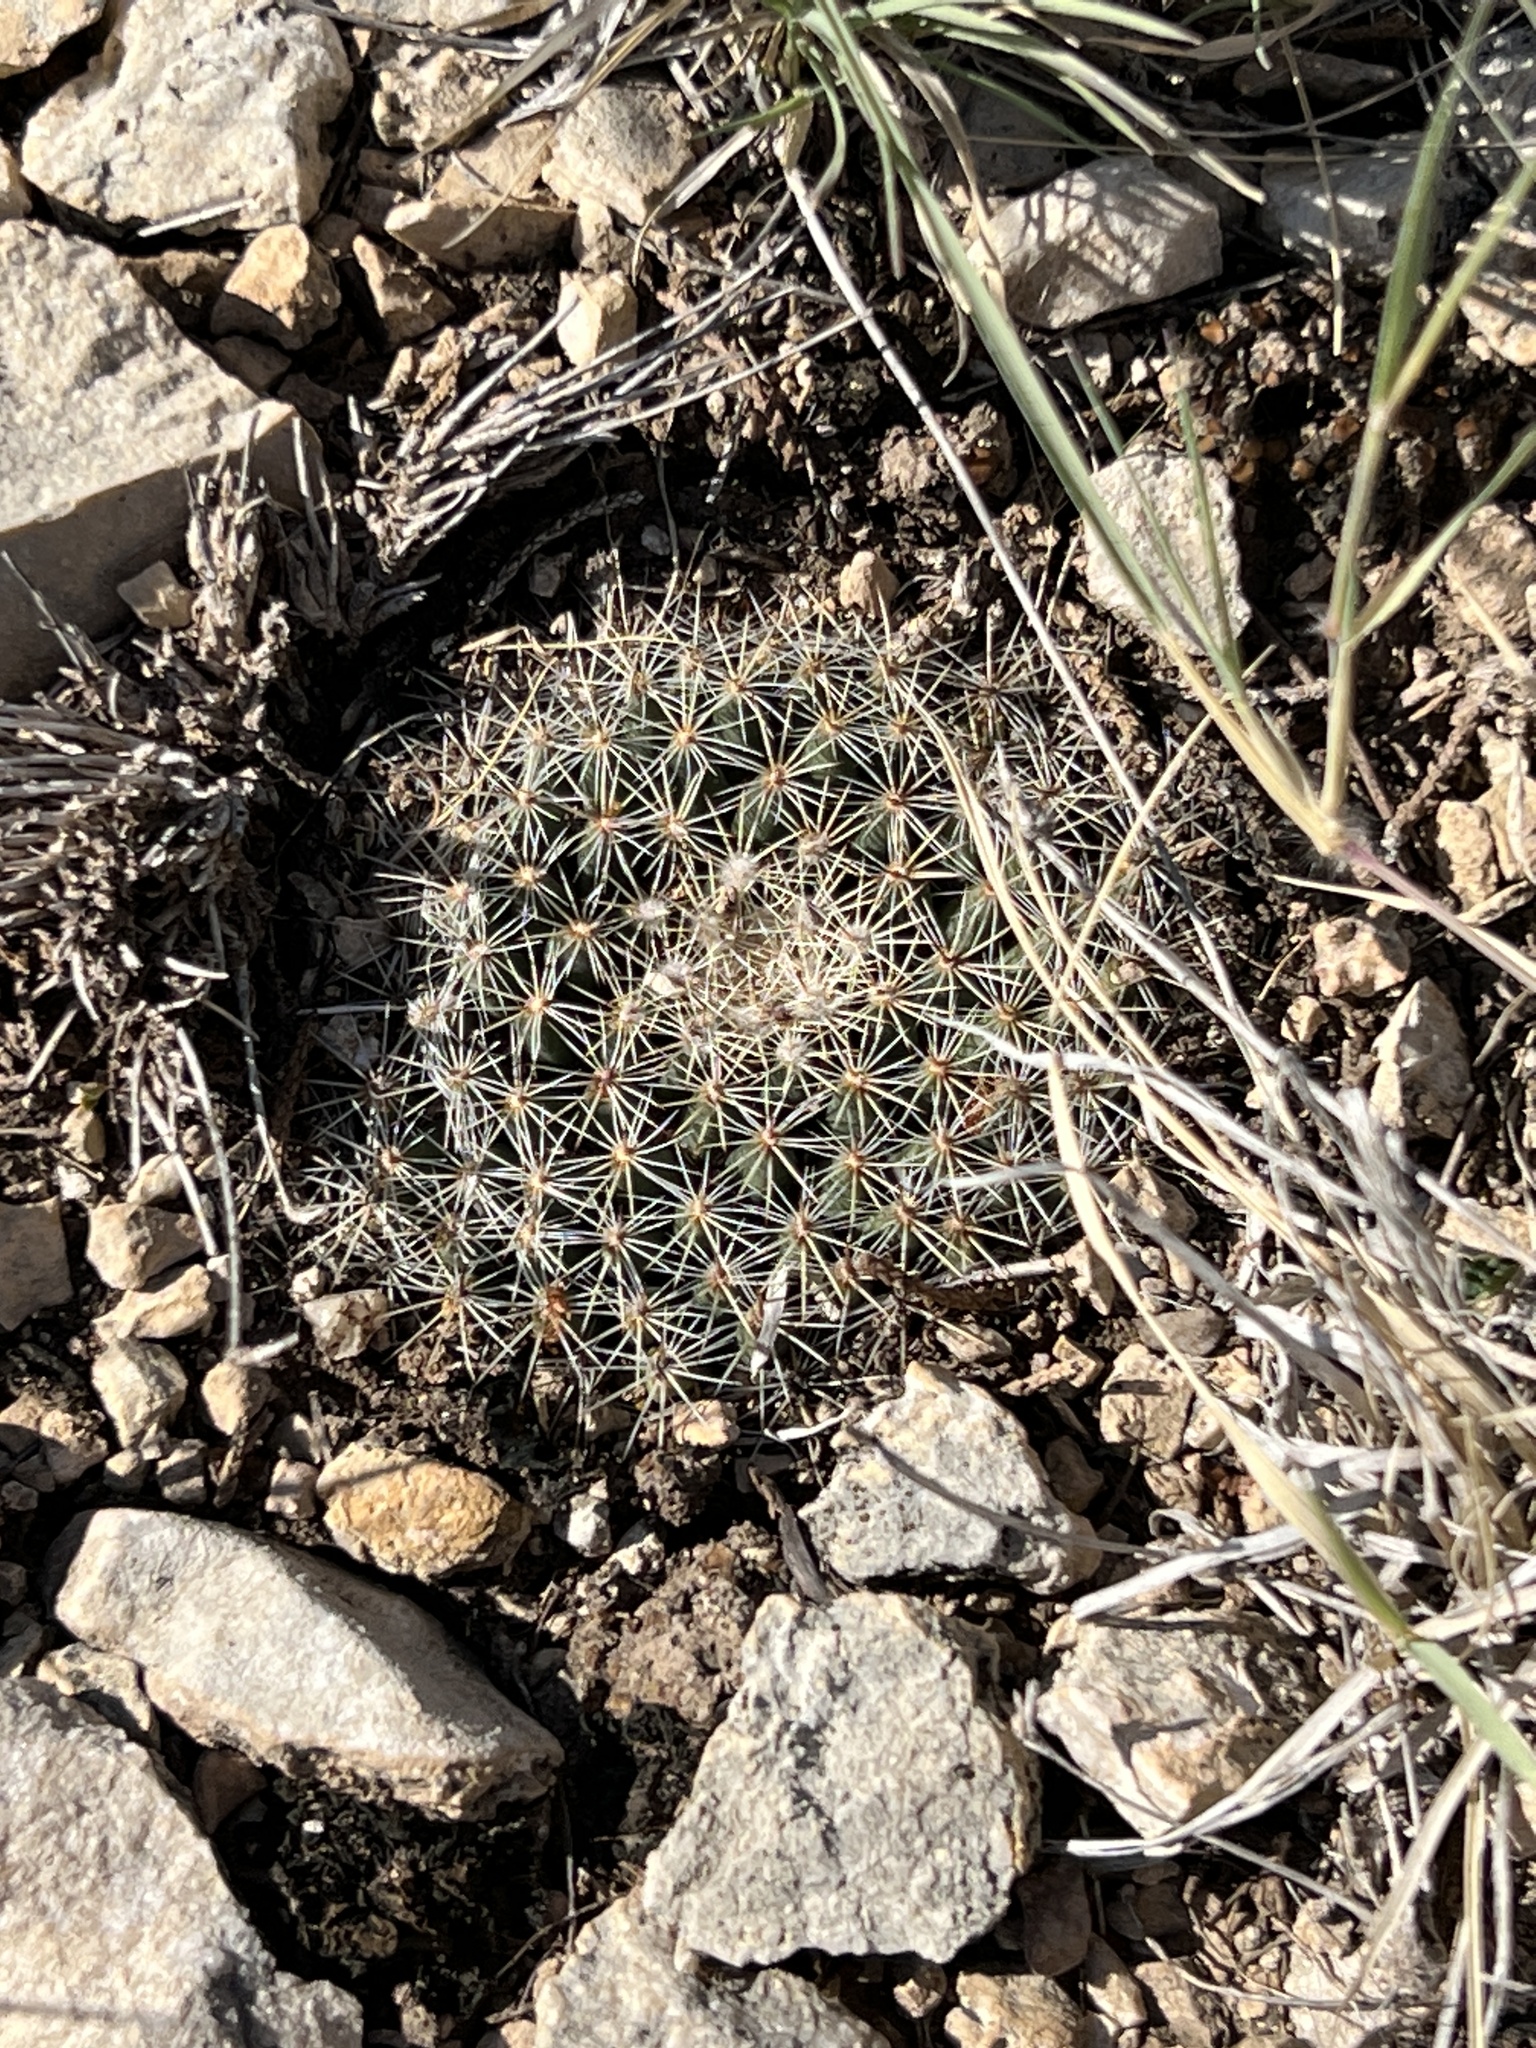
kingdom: Plantae
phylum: Tracheophyta
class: Magnoliopsida
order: Caryophyllales
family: Cactaceae
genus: Mammillaria
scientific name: Mammillaria heyderi
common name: Little nipple cactus
